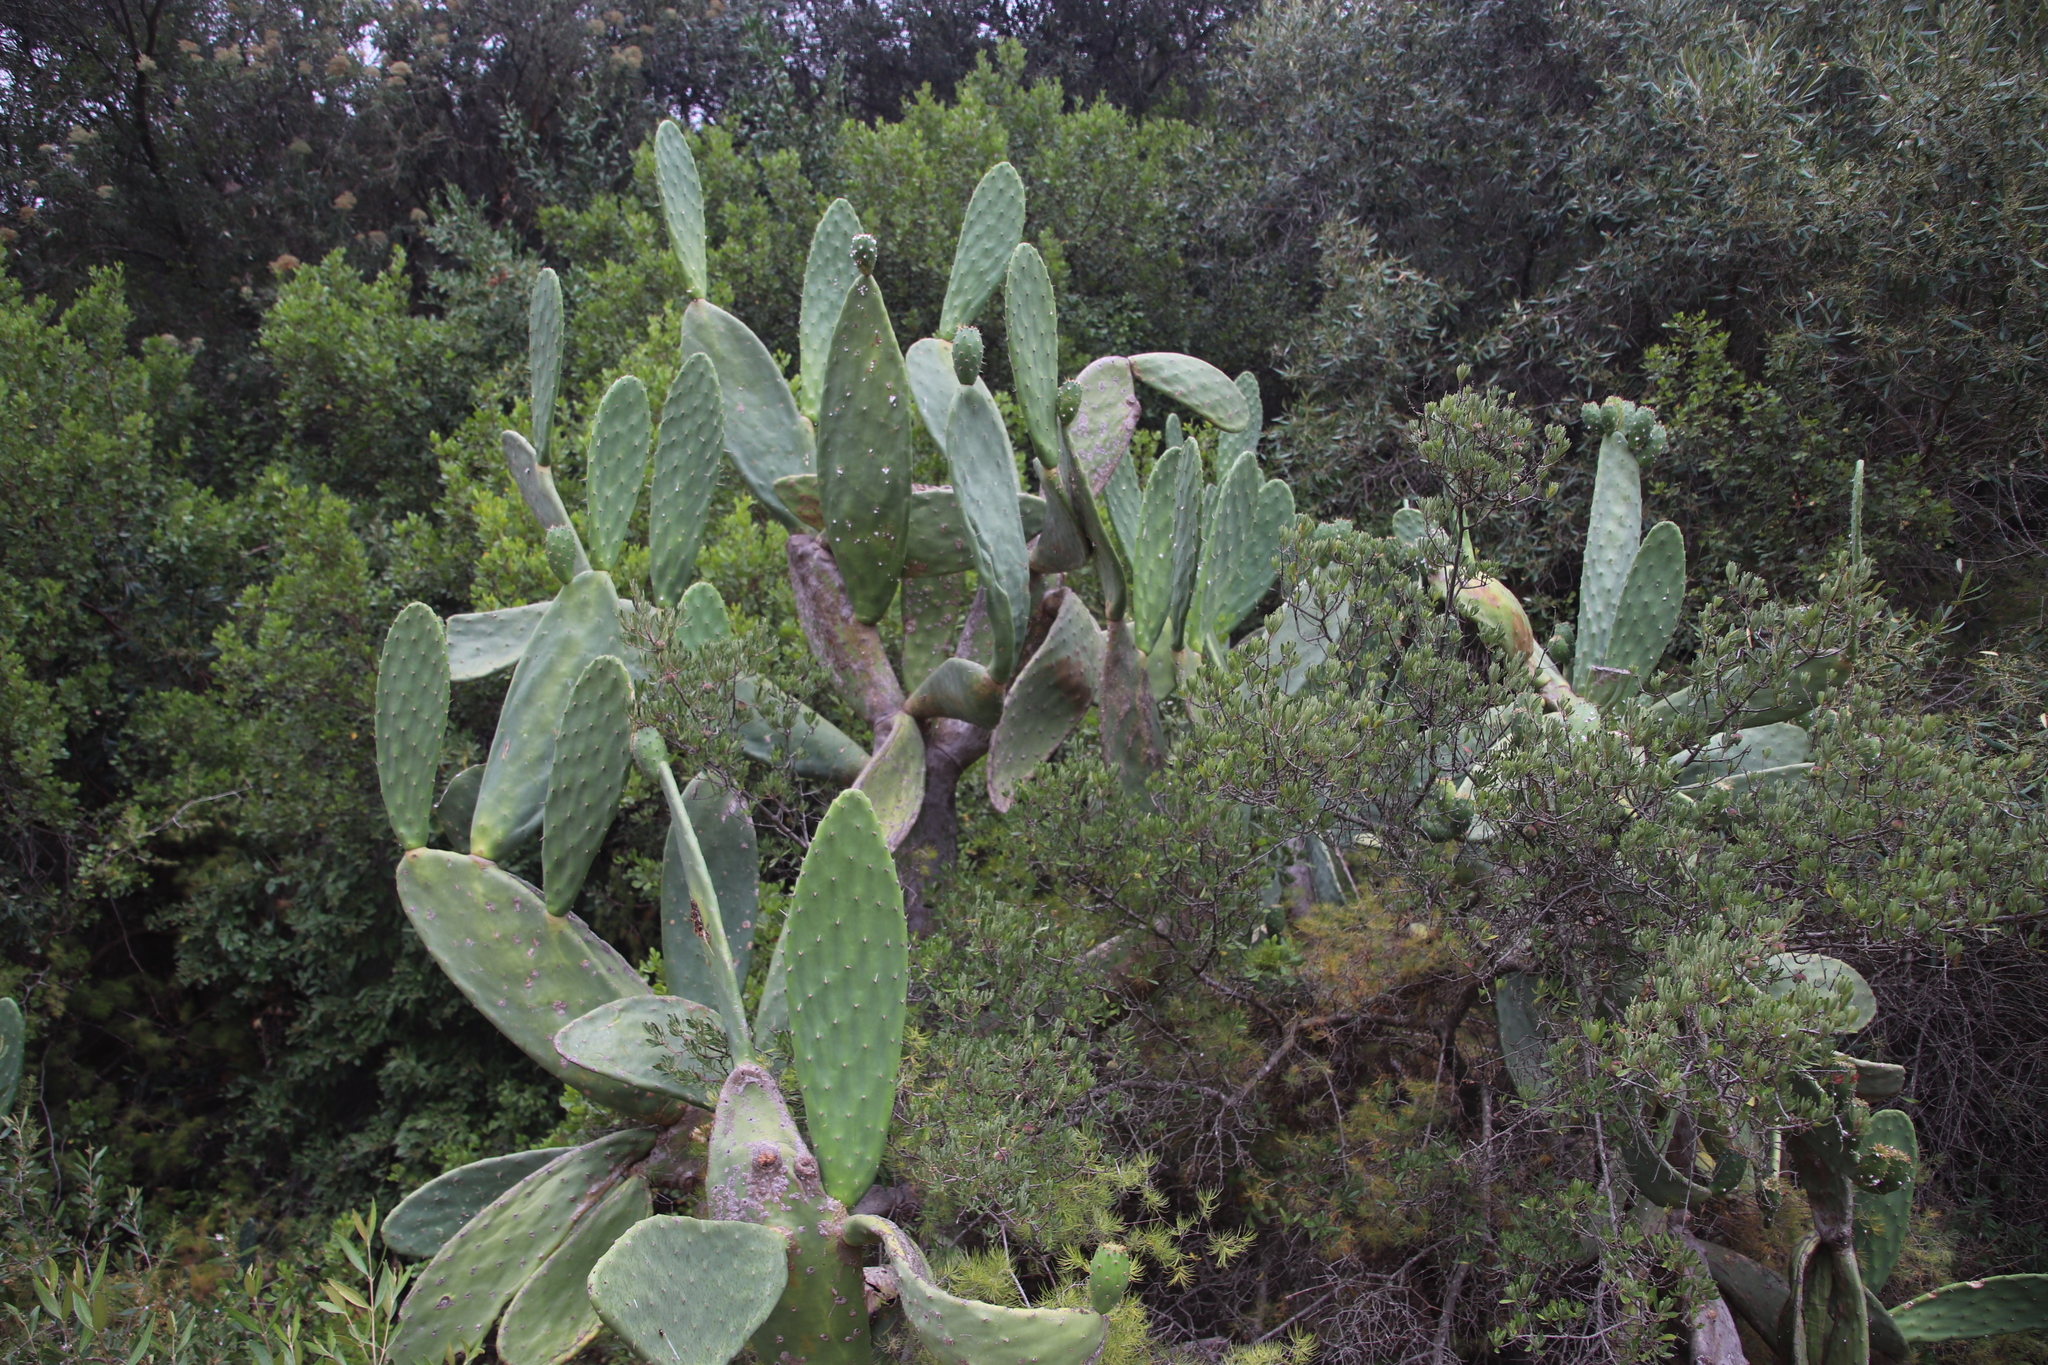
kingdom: Plantae
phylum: Tracheophyta
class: Magnoliopsida
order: Caryophyllales
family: Cactaceae
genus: Opuntia
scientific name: Opuntia ficus-indica
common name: Barbary fig
